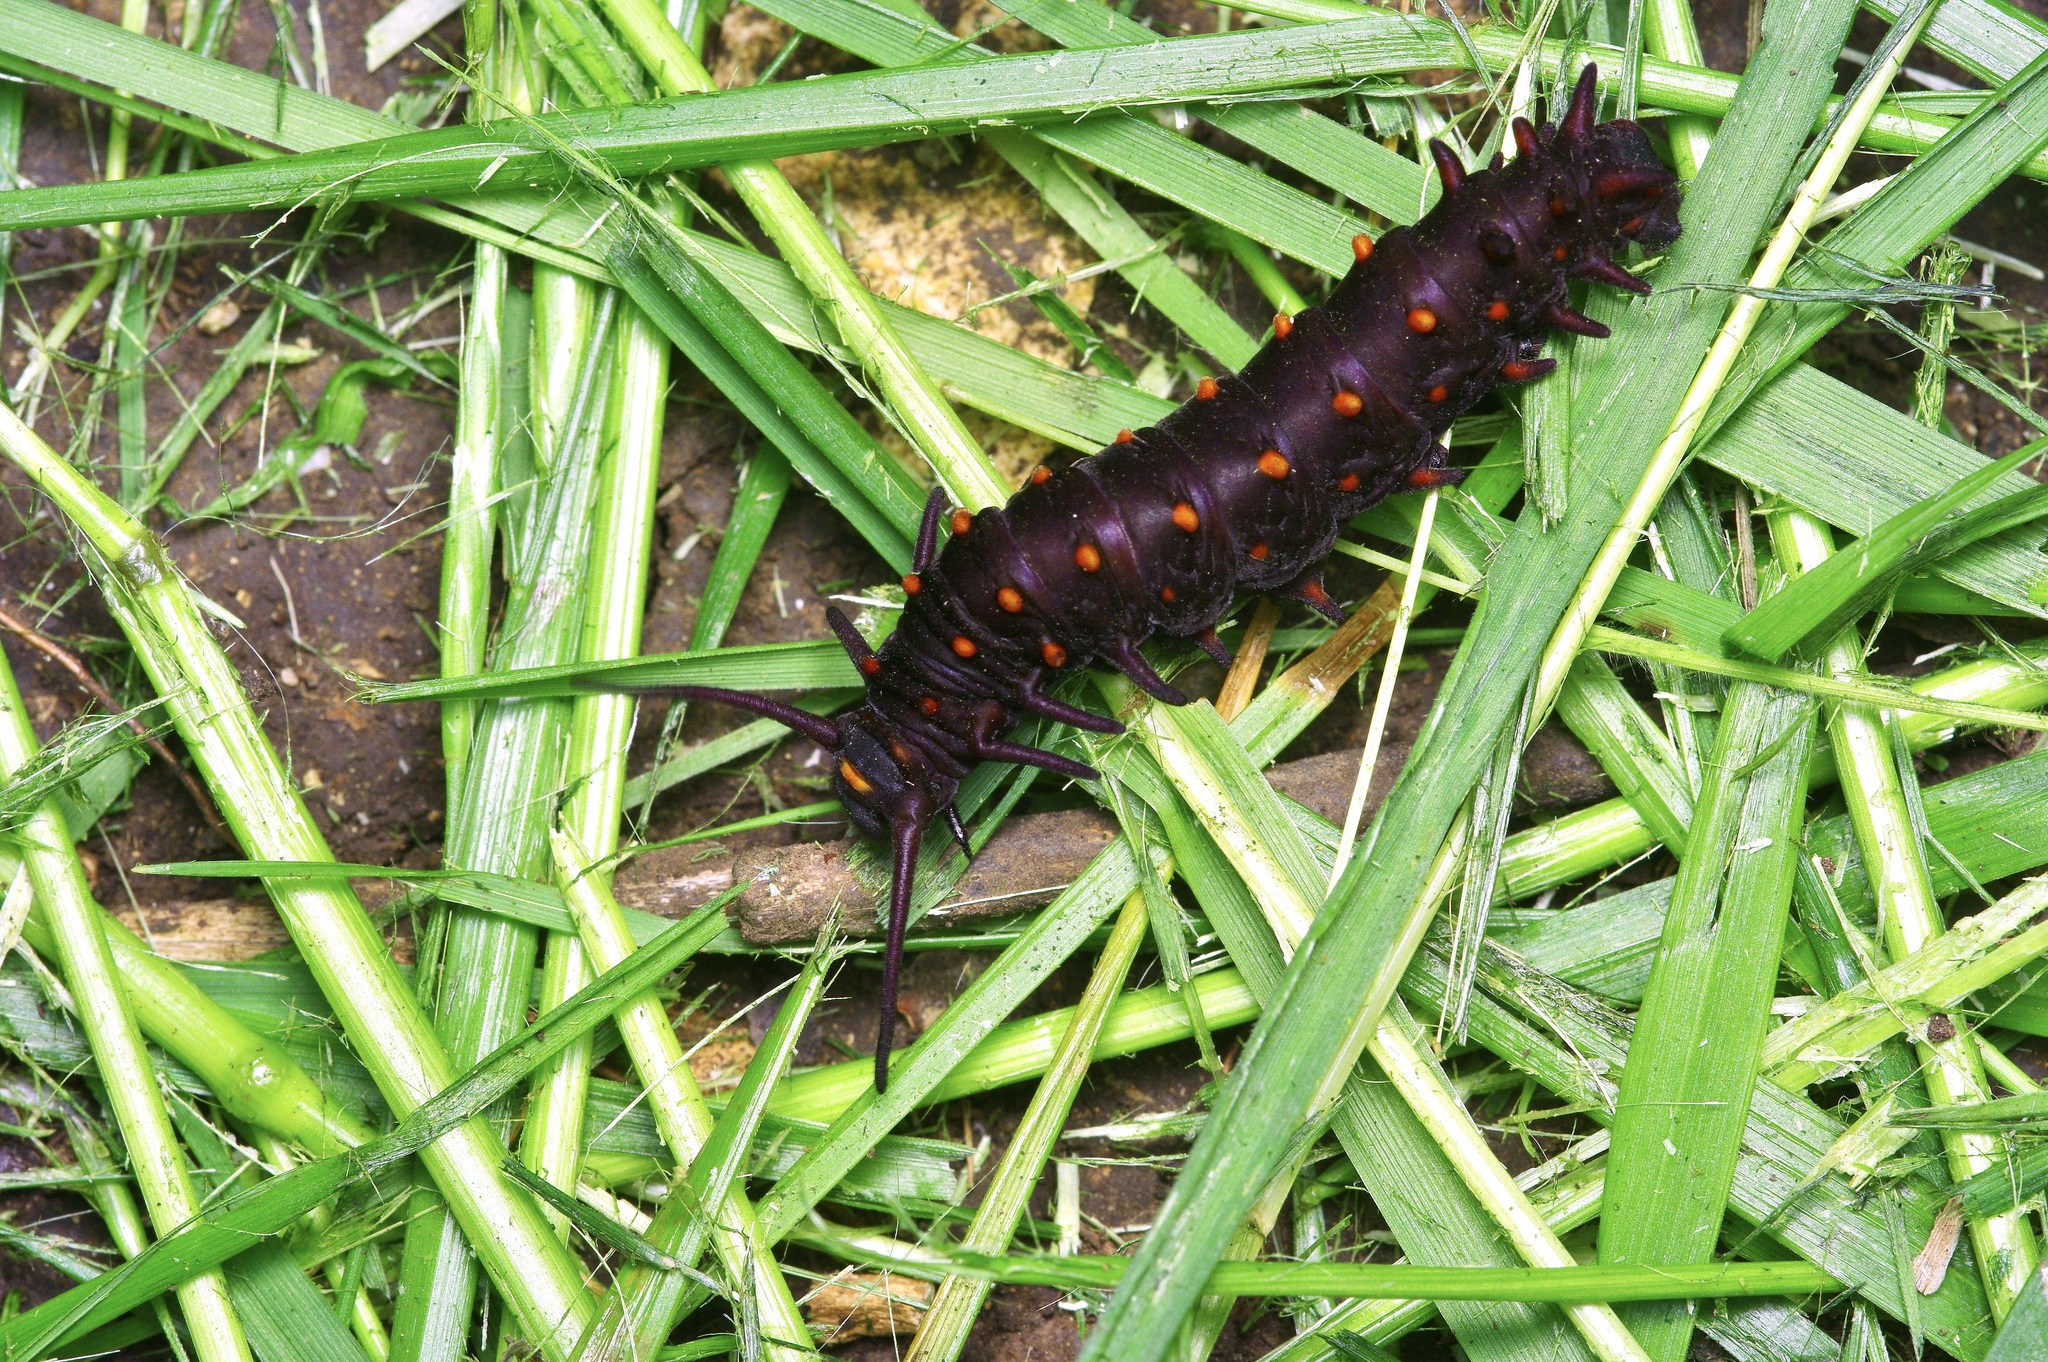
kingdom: Animalia
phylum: Arthropoda
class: Insecta
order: Lepidoptera
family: Papilionidae
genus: Battus
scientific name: Battus philenor
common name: Pipevine swallowtail
